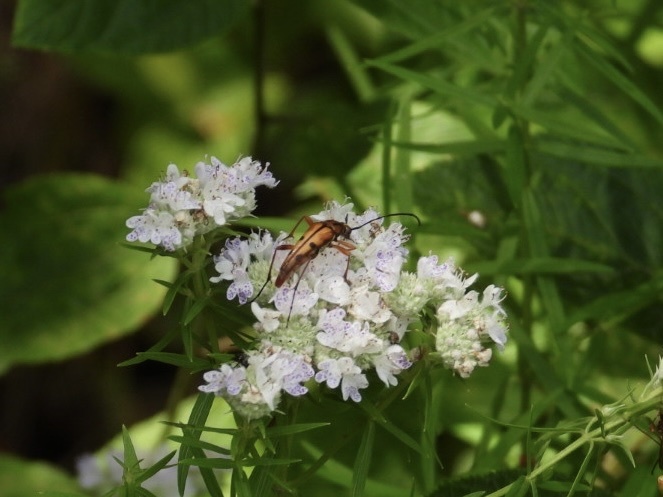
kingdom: Animalia
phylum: Arthropoda
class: Insecta
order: Coleoptera
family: Cerambycidae
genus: Strangalia
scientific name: Strangalia famelica
